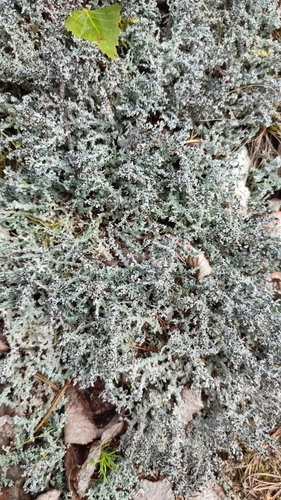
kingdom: Fungi
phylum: Ascomycota
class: Lecanoromycetes
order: Lecanorales
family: Stereocaulaceae
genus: Stereocaulon
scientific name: Stereocaulon
